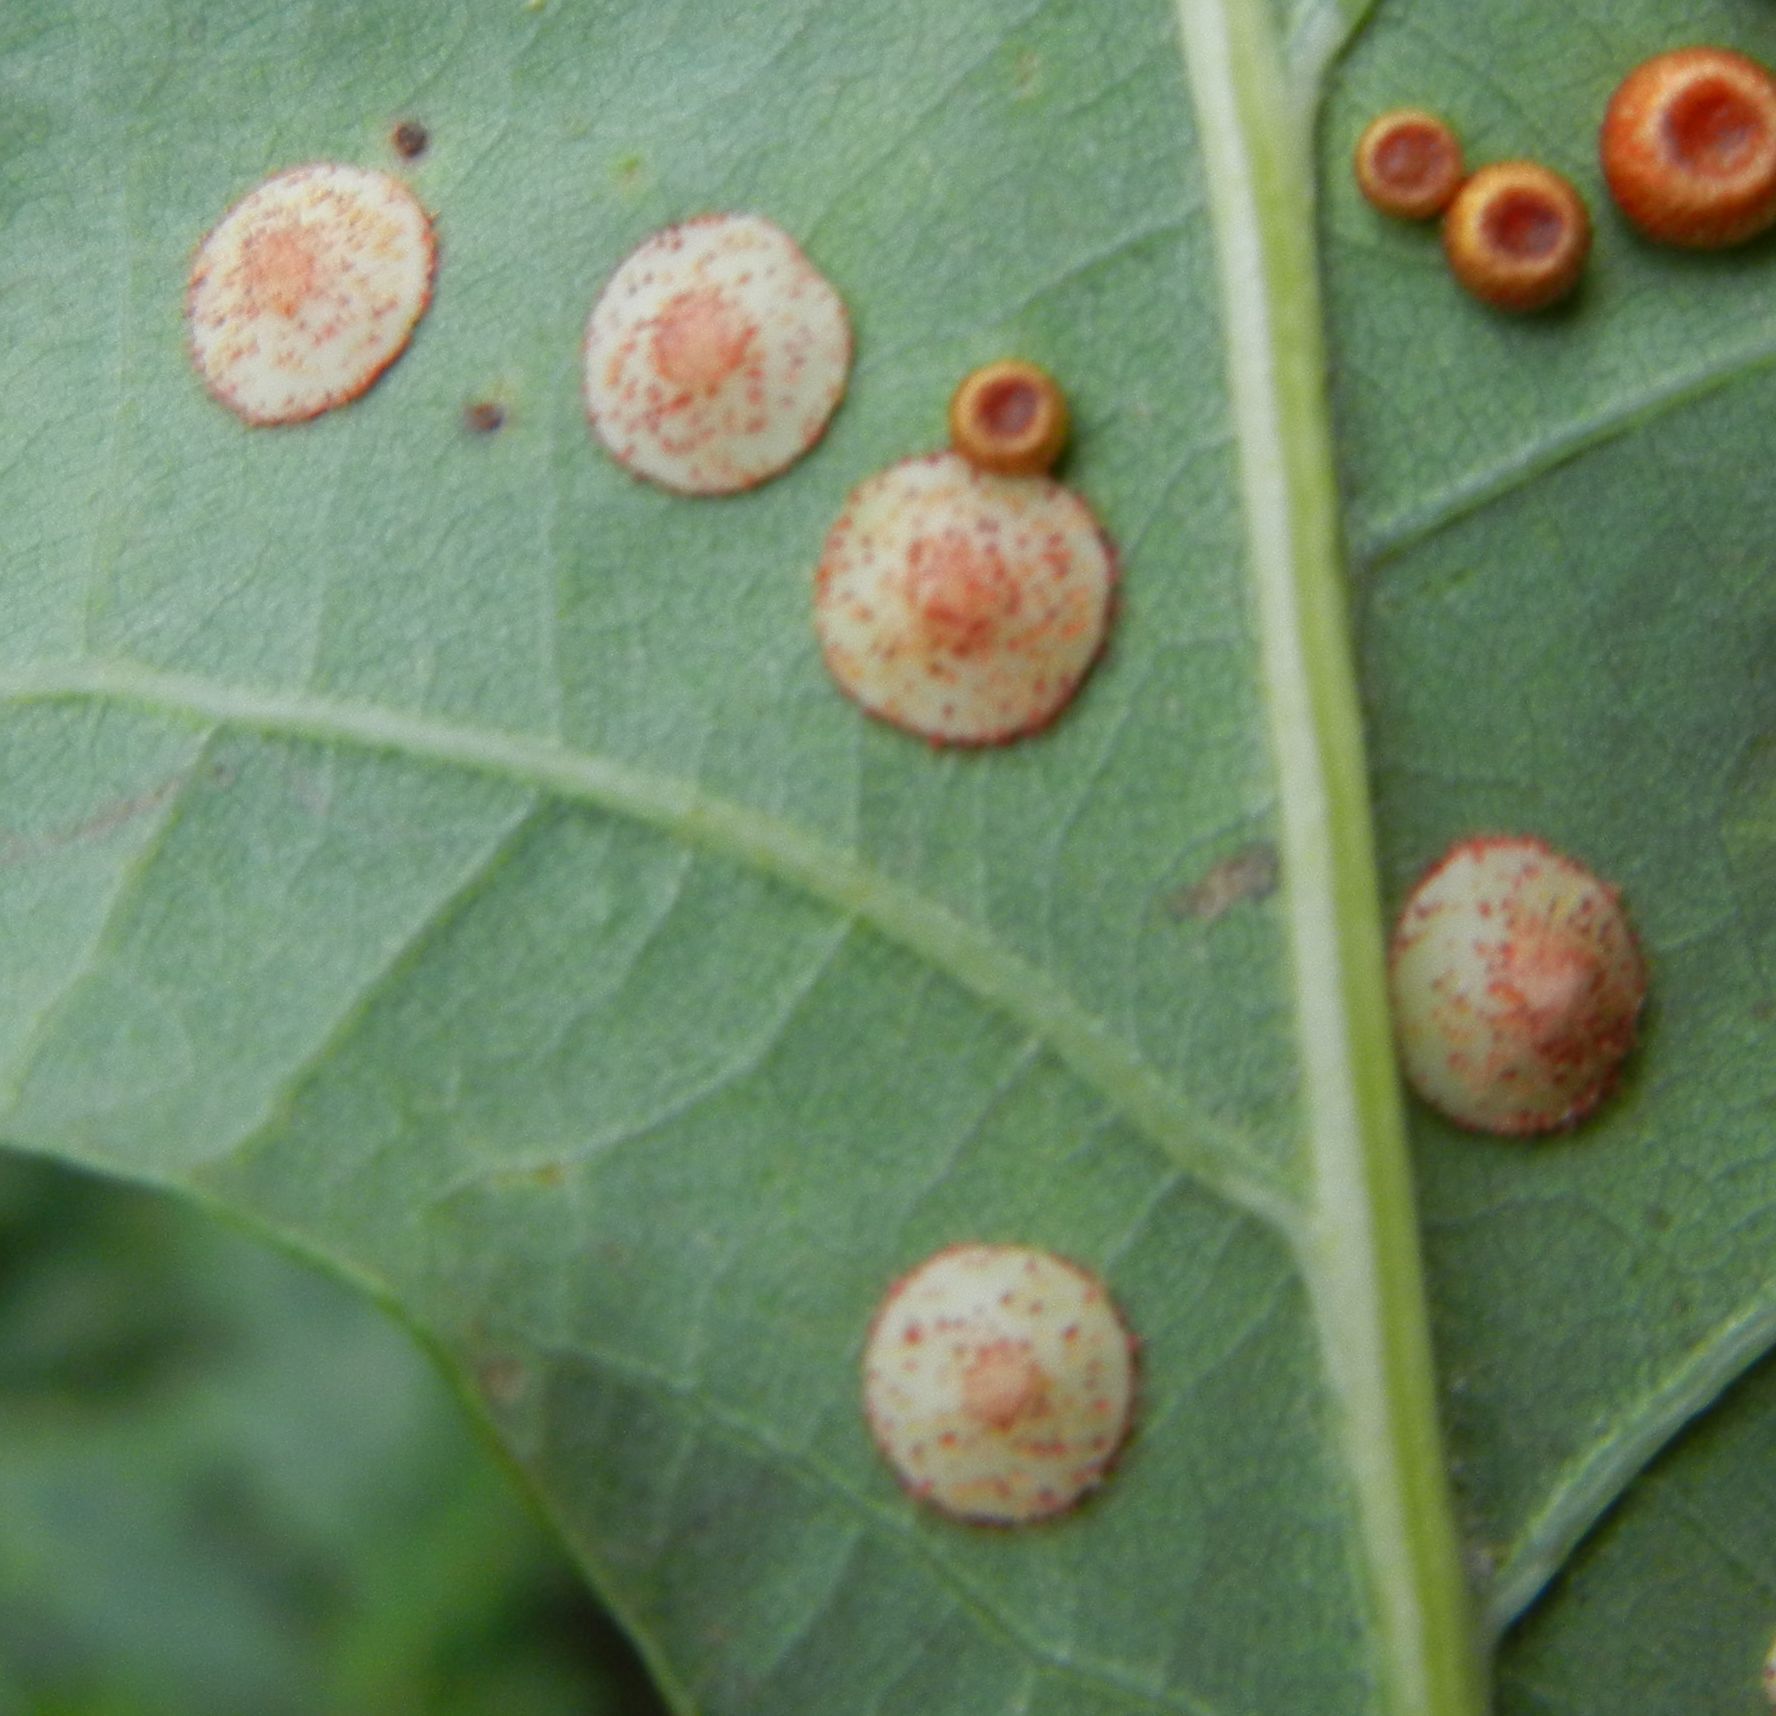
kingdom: Animalia
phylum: Arthropoda
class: Insecta
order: Hymenoptera
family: Cynipidae
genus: Neuroterus
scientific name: Neuroterus quercusbaccarum
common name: Common spangle gall
